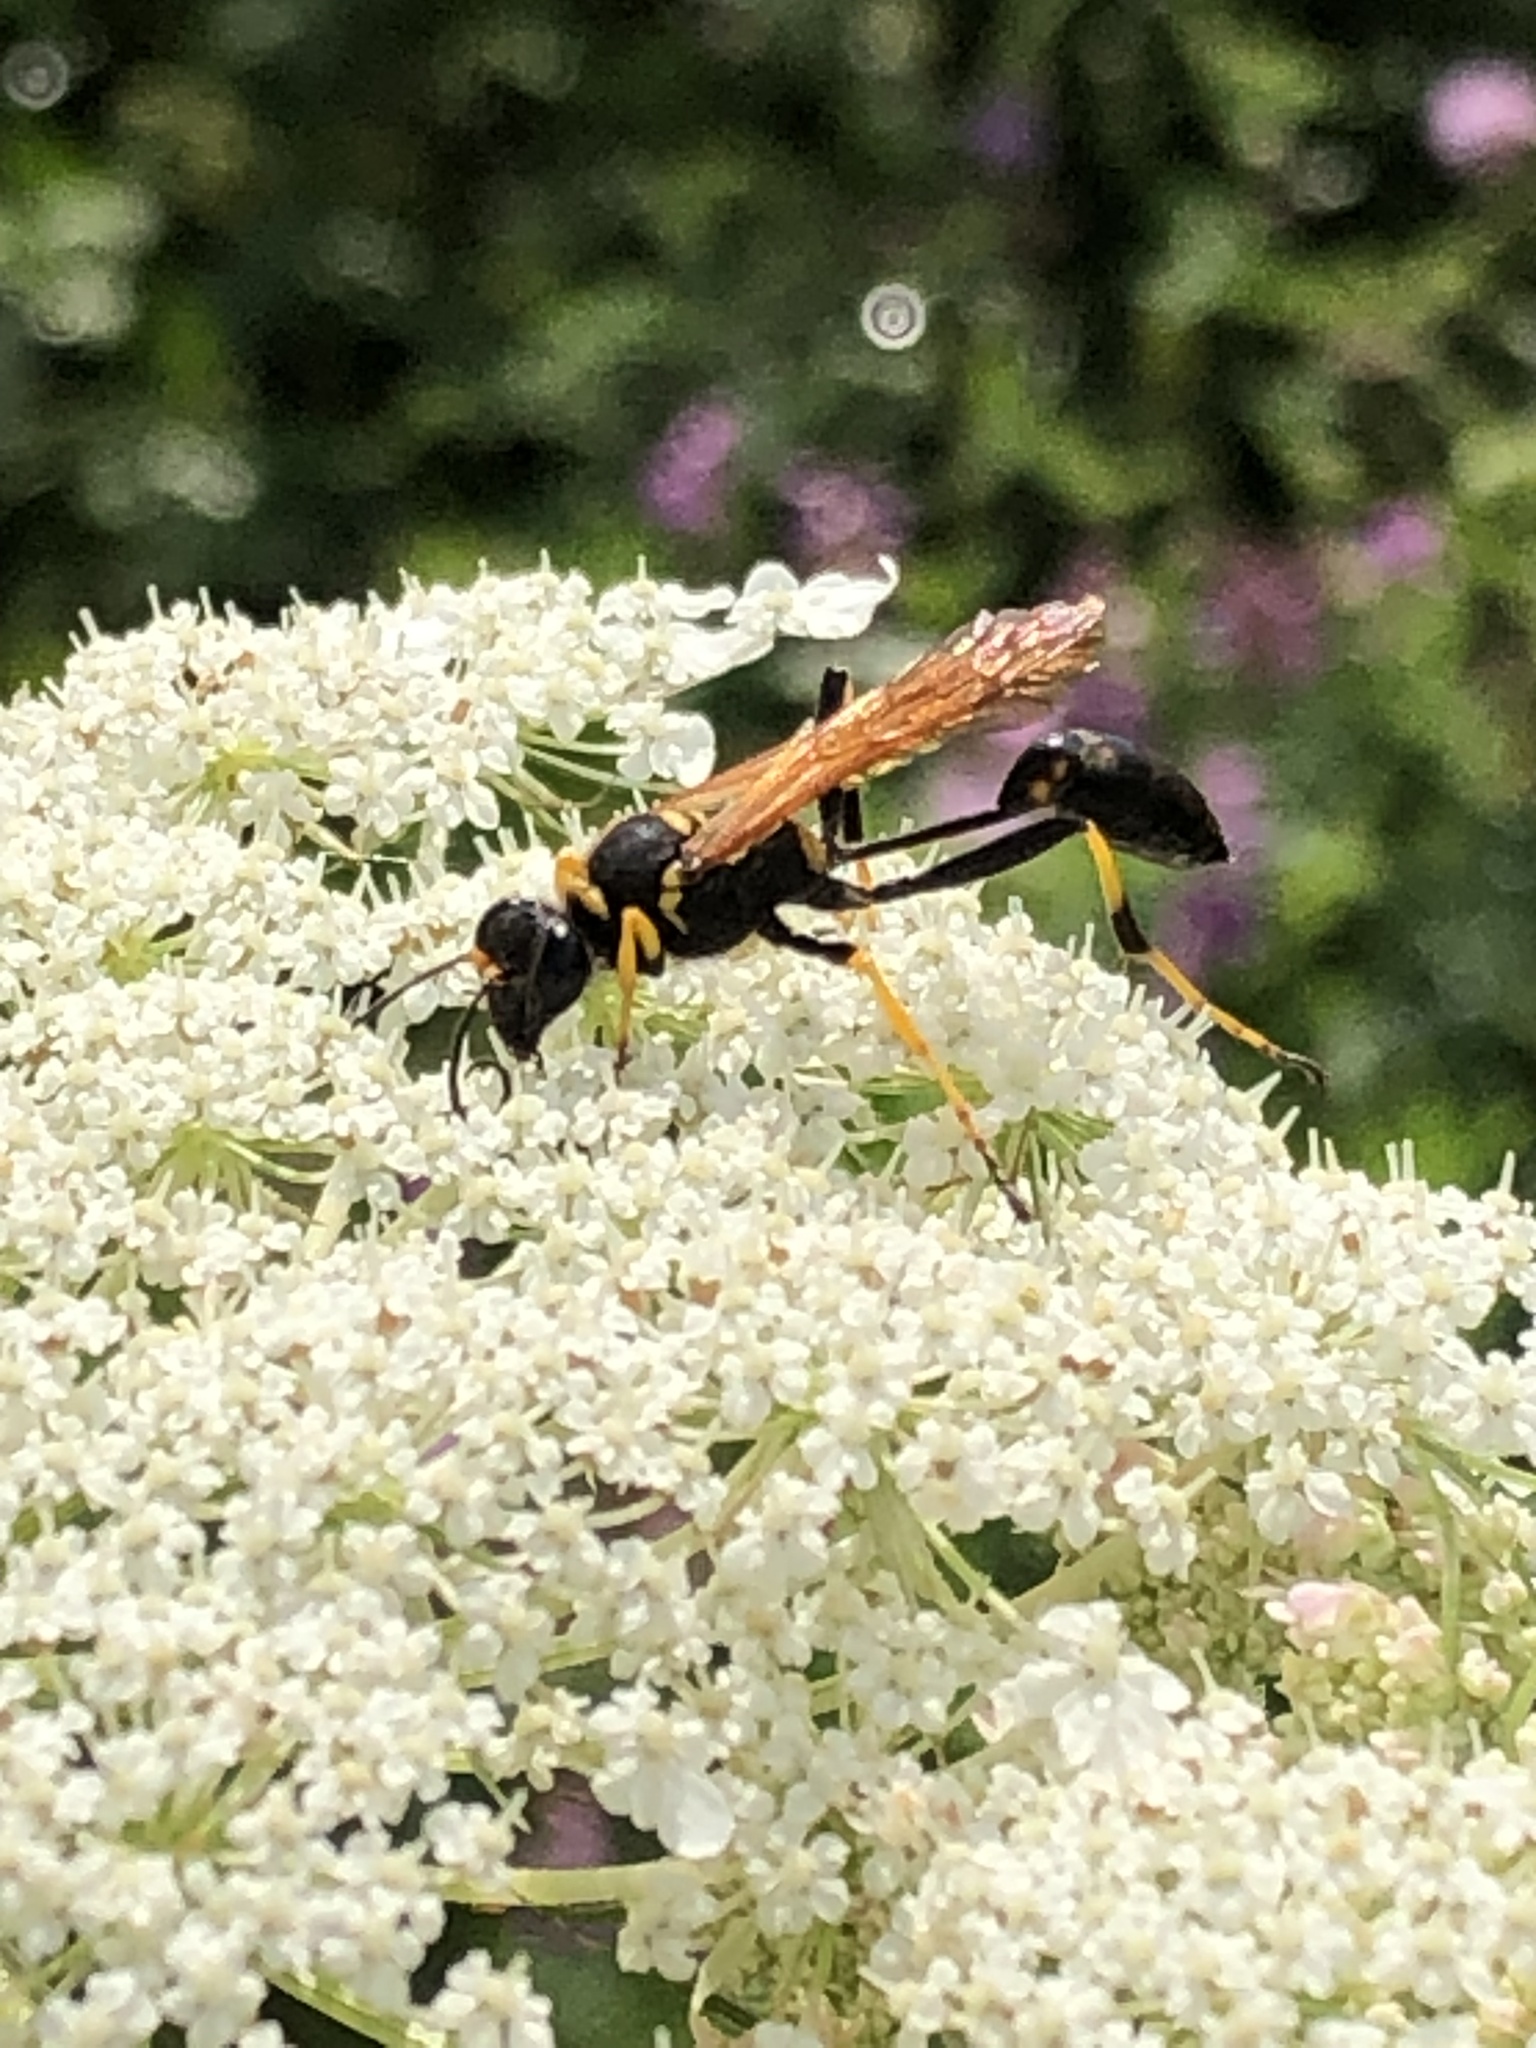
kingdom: Animalia
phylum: Arthropoda
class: Insecta
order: Hymenoptera
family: Sphecidae
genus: Sceliphron
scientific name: Sceliphron caementarium
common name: Mud dauber
